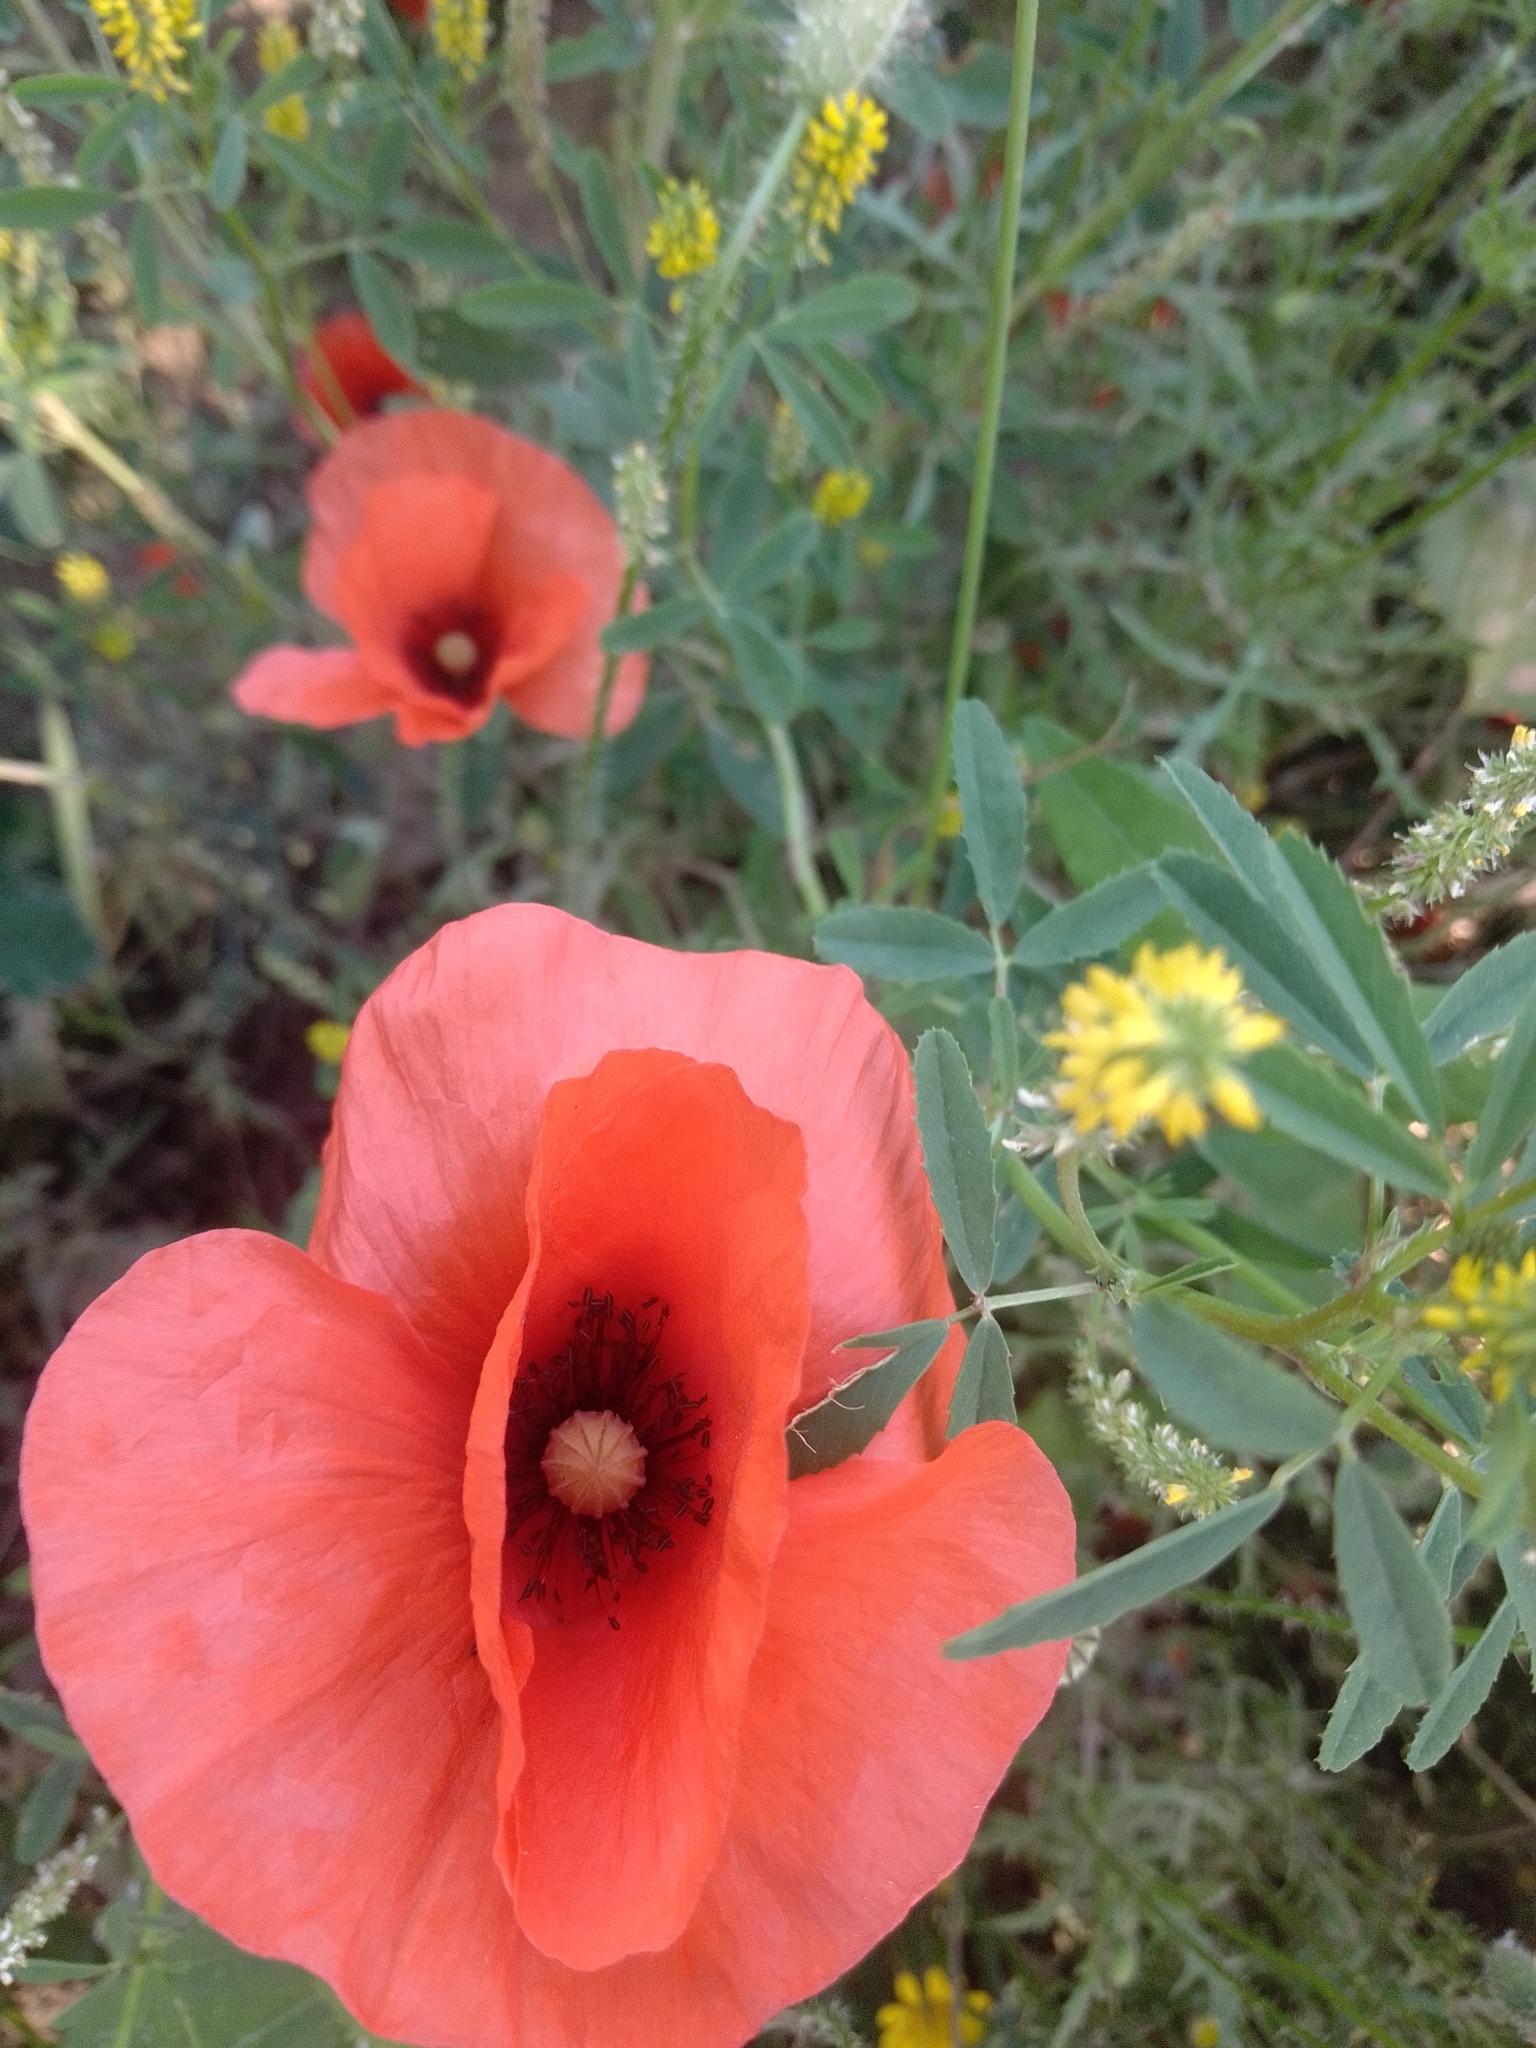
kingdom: Plantae
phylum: Tracheophyta
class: Magnoliopsida
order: Ranunculales
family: Papaveraceae
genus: Papaver
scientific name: Papaver rhoeas
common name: Corn poppy
